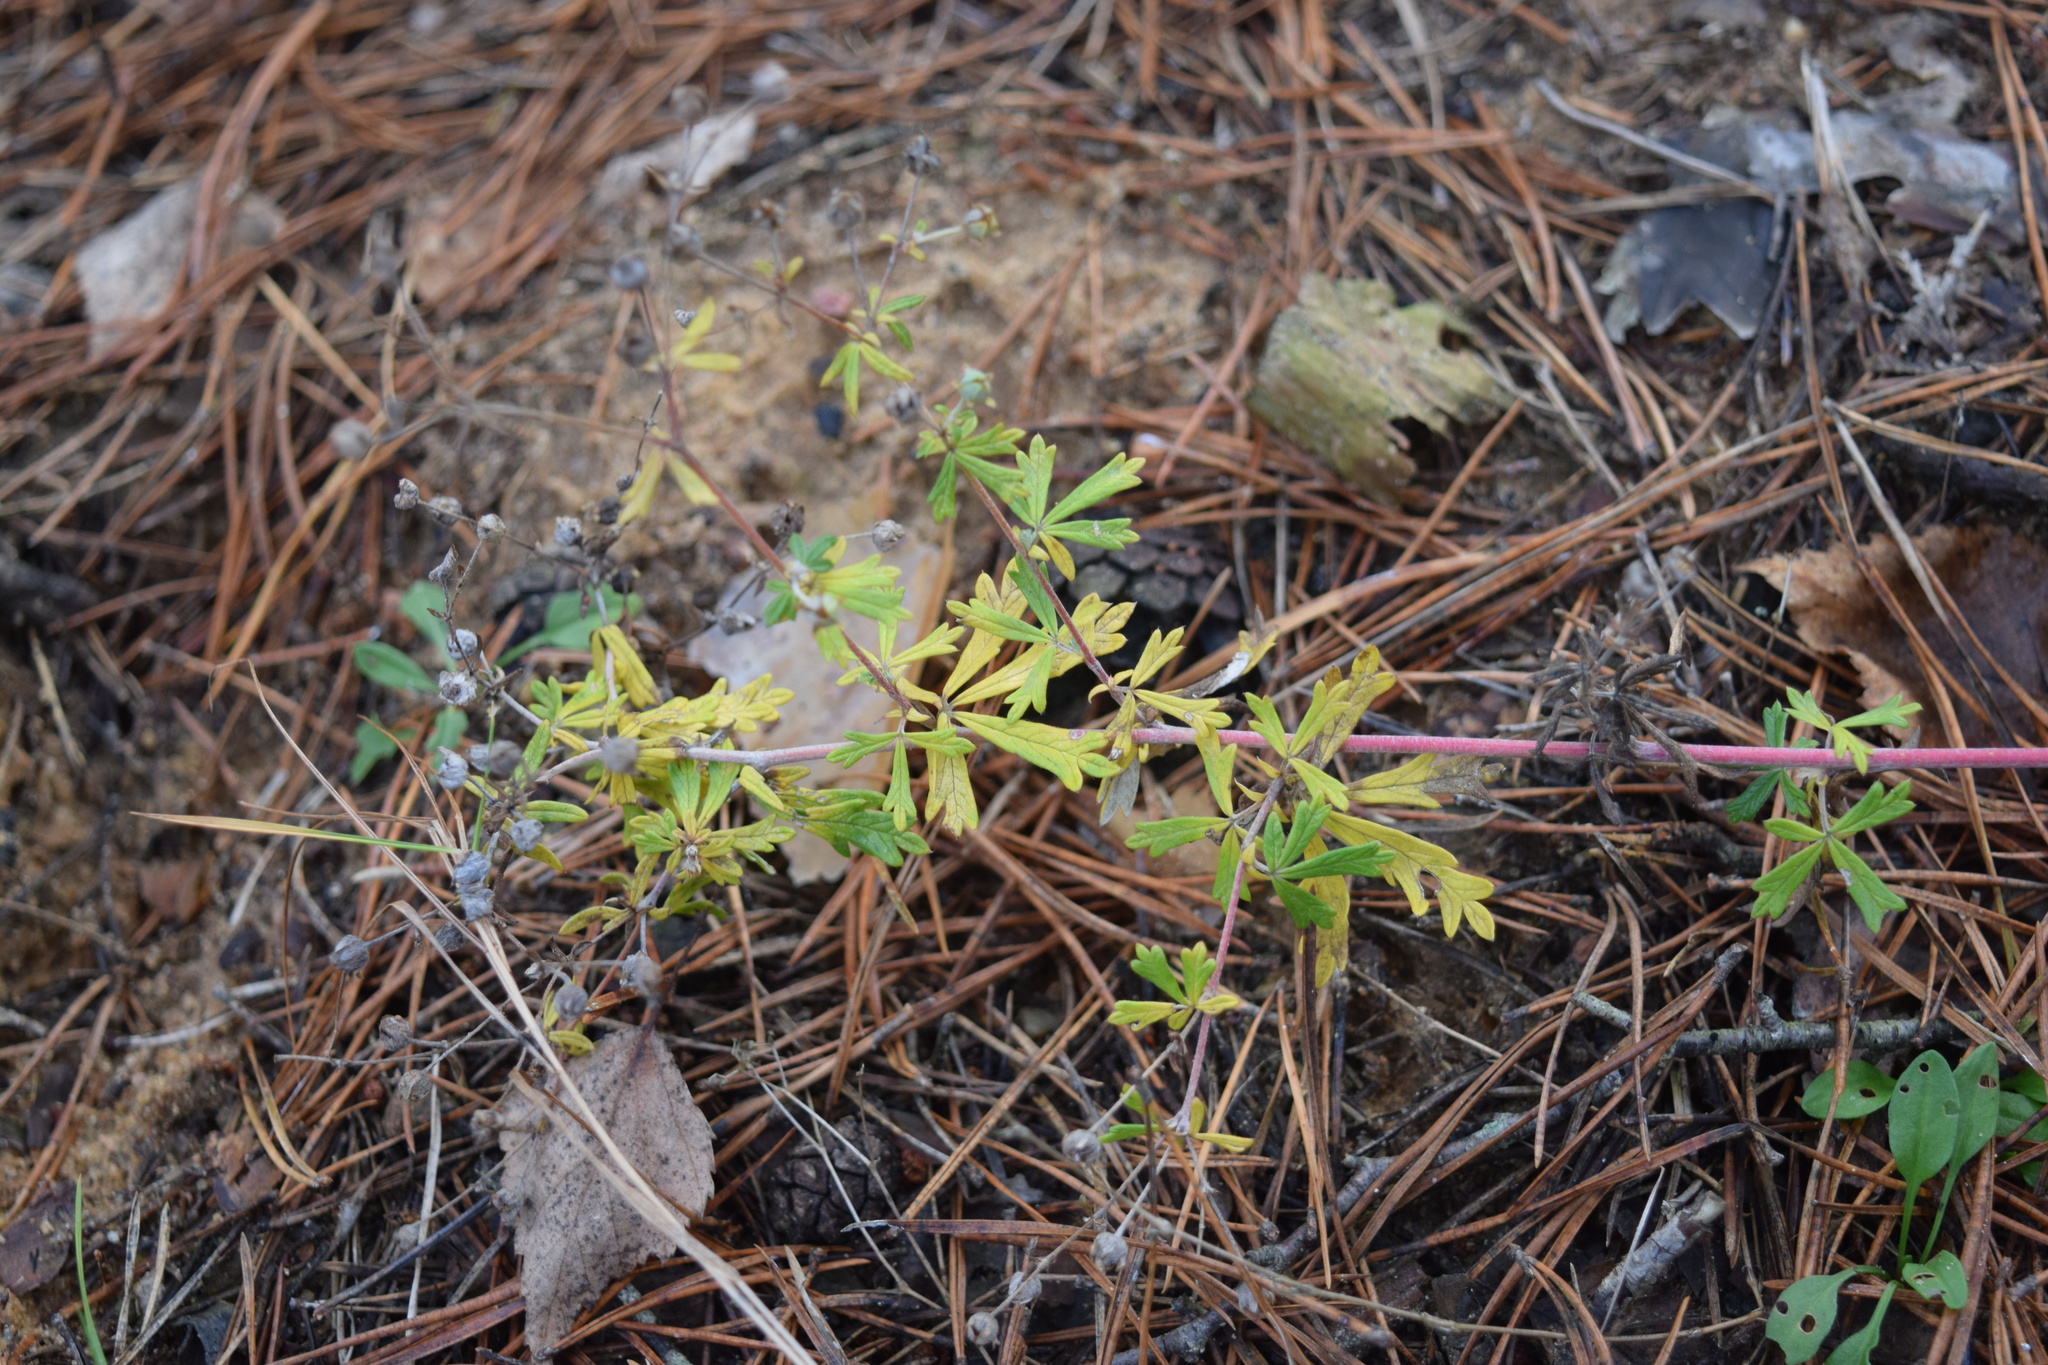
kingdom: Plantae
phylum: Tracheophyta
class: Magnoliopsida
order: Rosales
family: Rosaceae
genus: Potentilla
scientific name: Potentilla argentea
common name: Hoary cinquefoil
